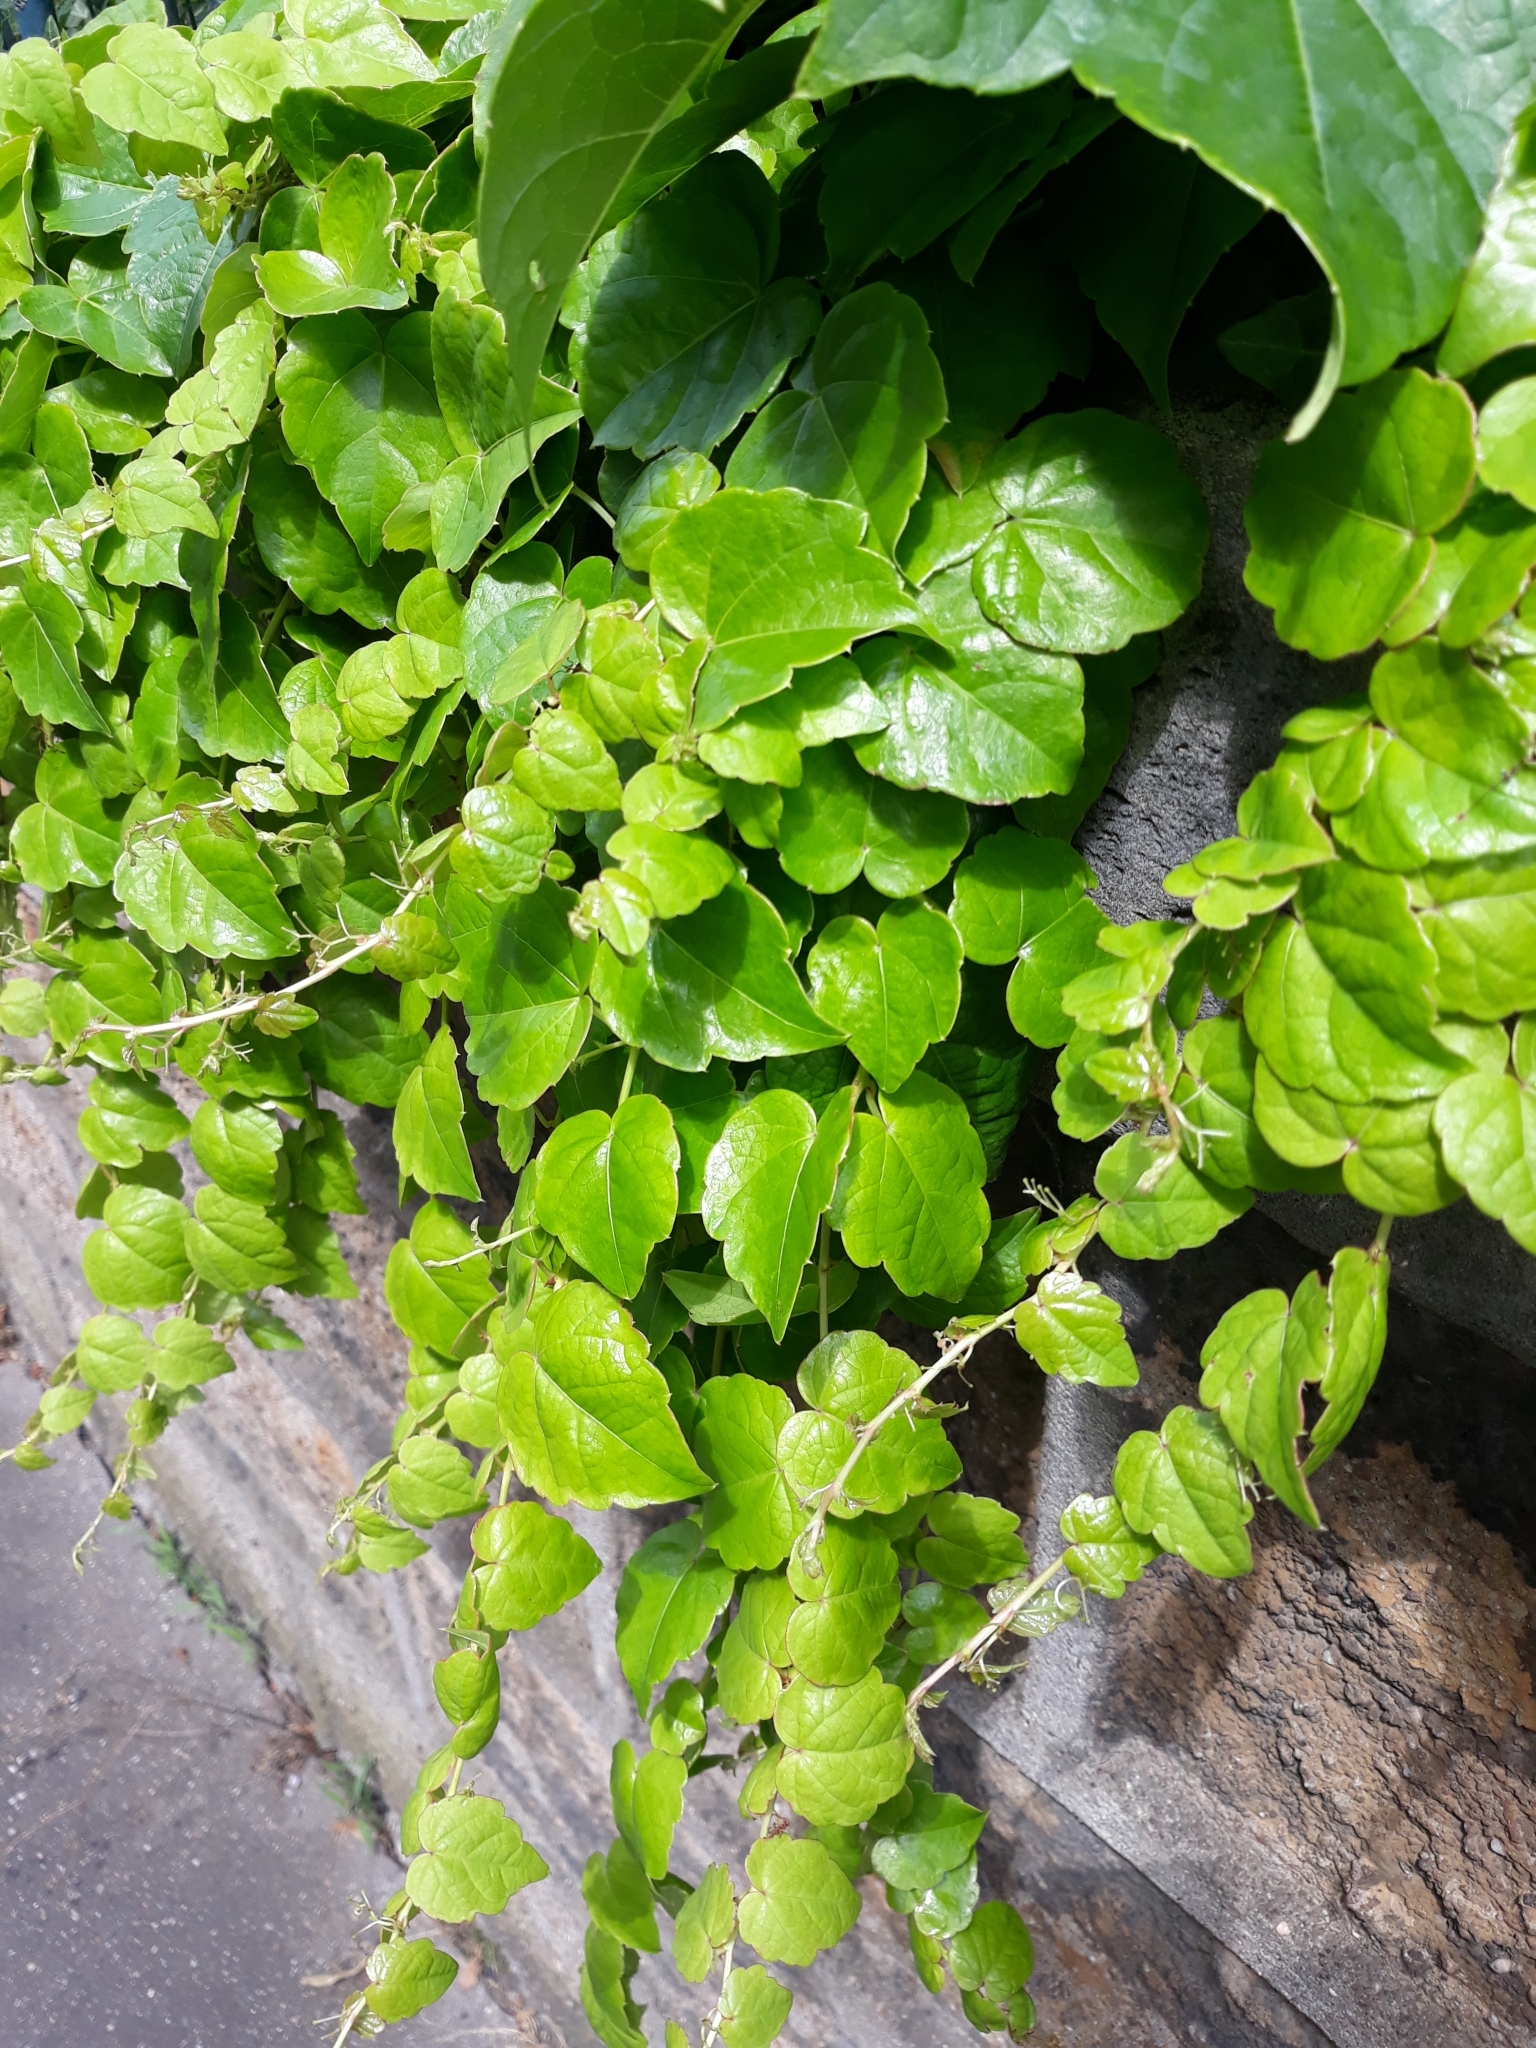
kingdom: Plantae
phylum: Tracheophyta
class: Magnoliopsida
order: Vitales
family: Vitaceae
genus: Parthenocissus
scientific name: Parthenocissus tricuspidata
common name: Boston ivy
